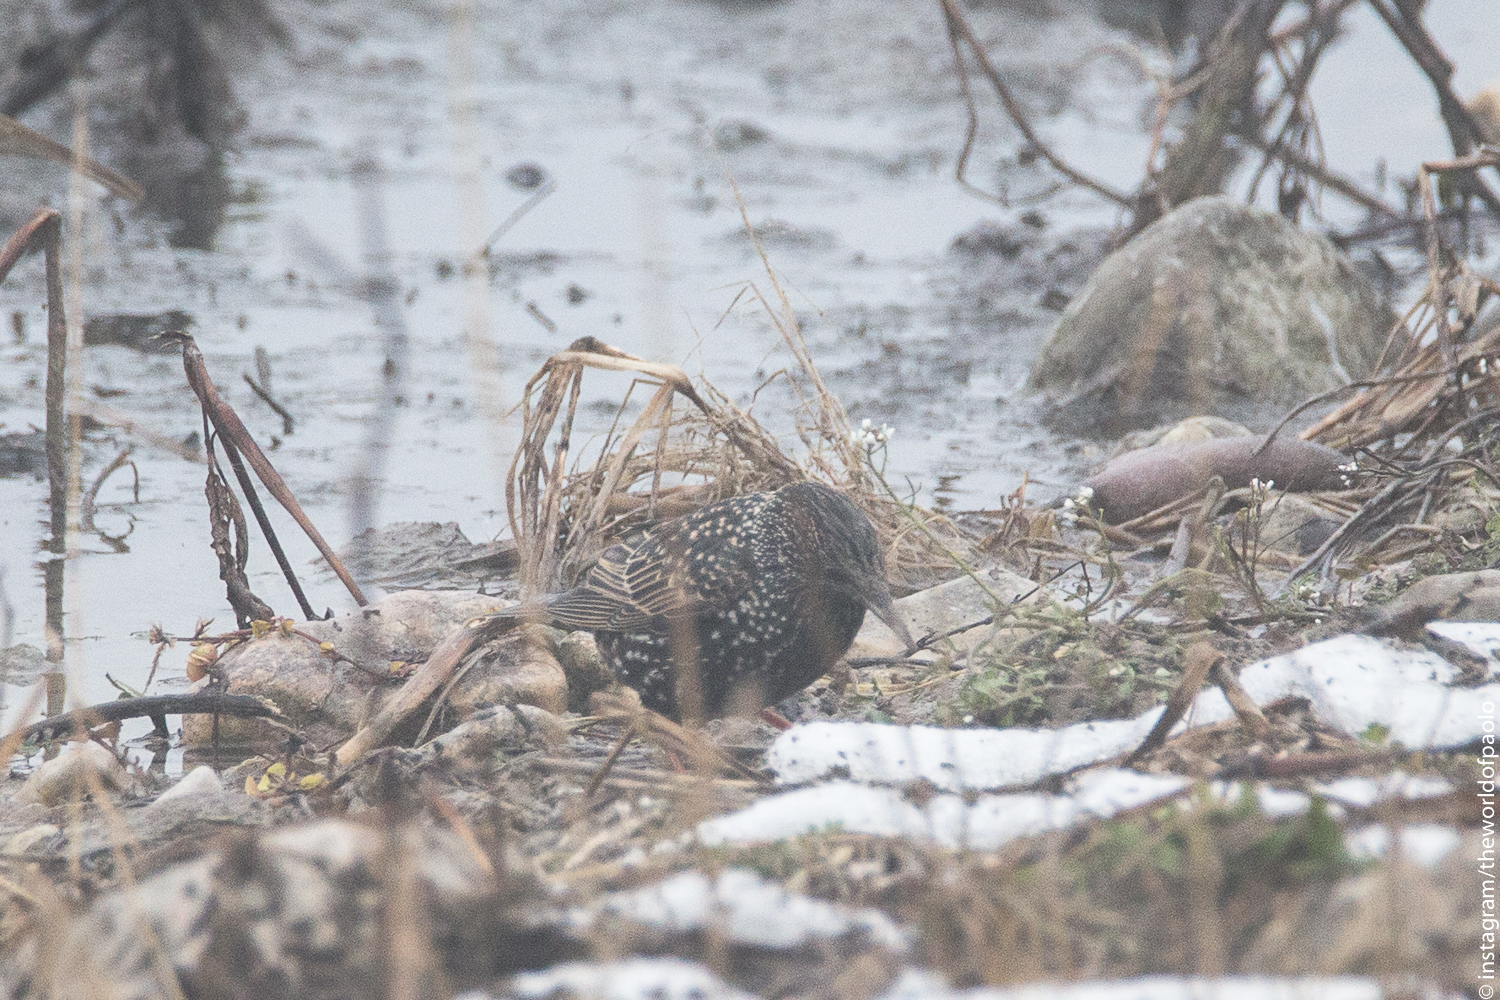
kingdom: Animalia
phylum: Chordata
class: Aves
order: Passeriformes
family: Sturnidae
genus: Sturnus
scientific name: Sturnus vulgaris
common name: Common starling
